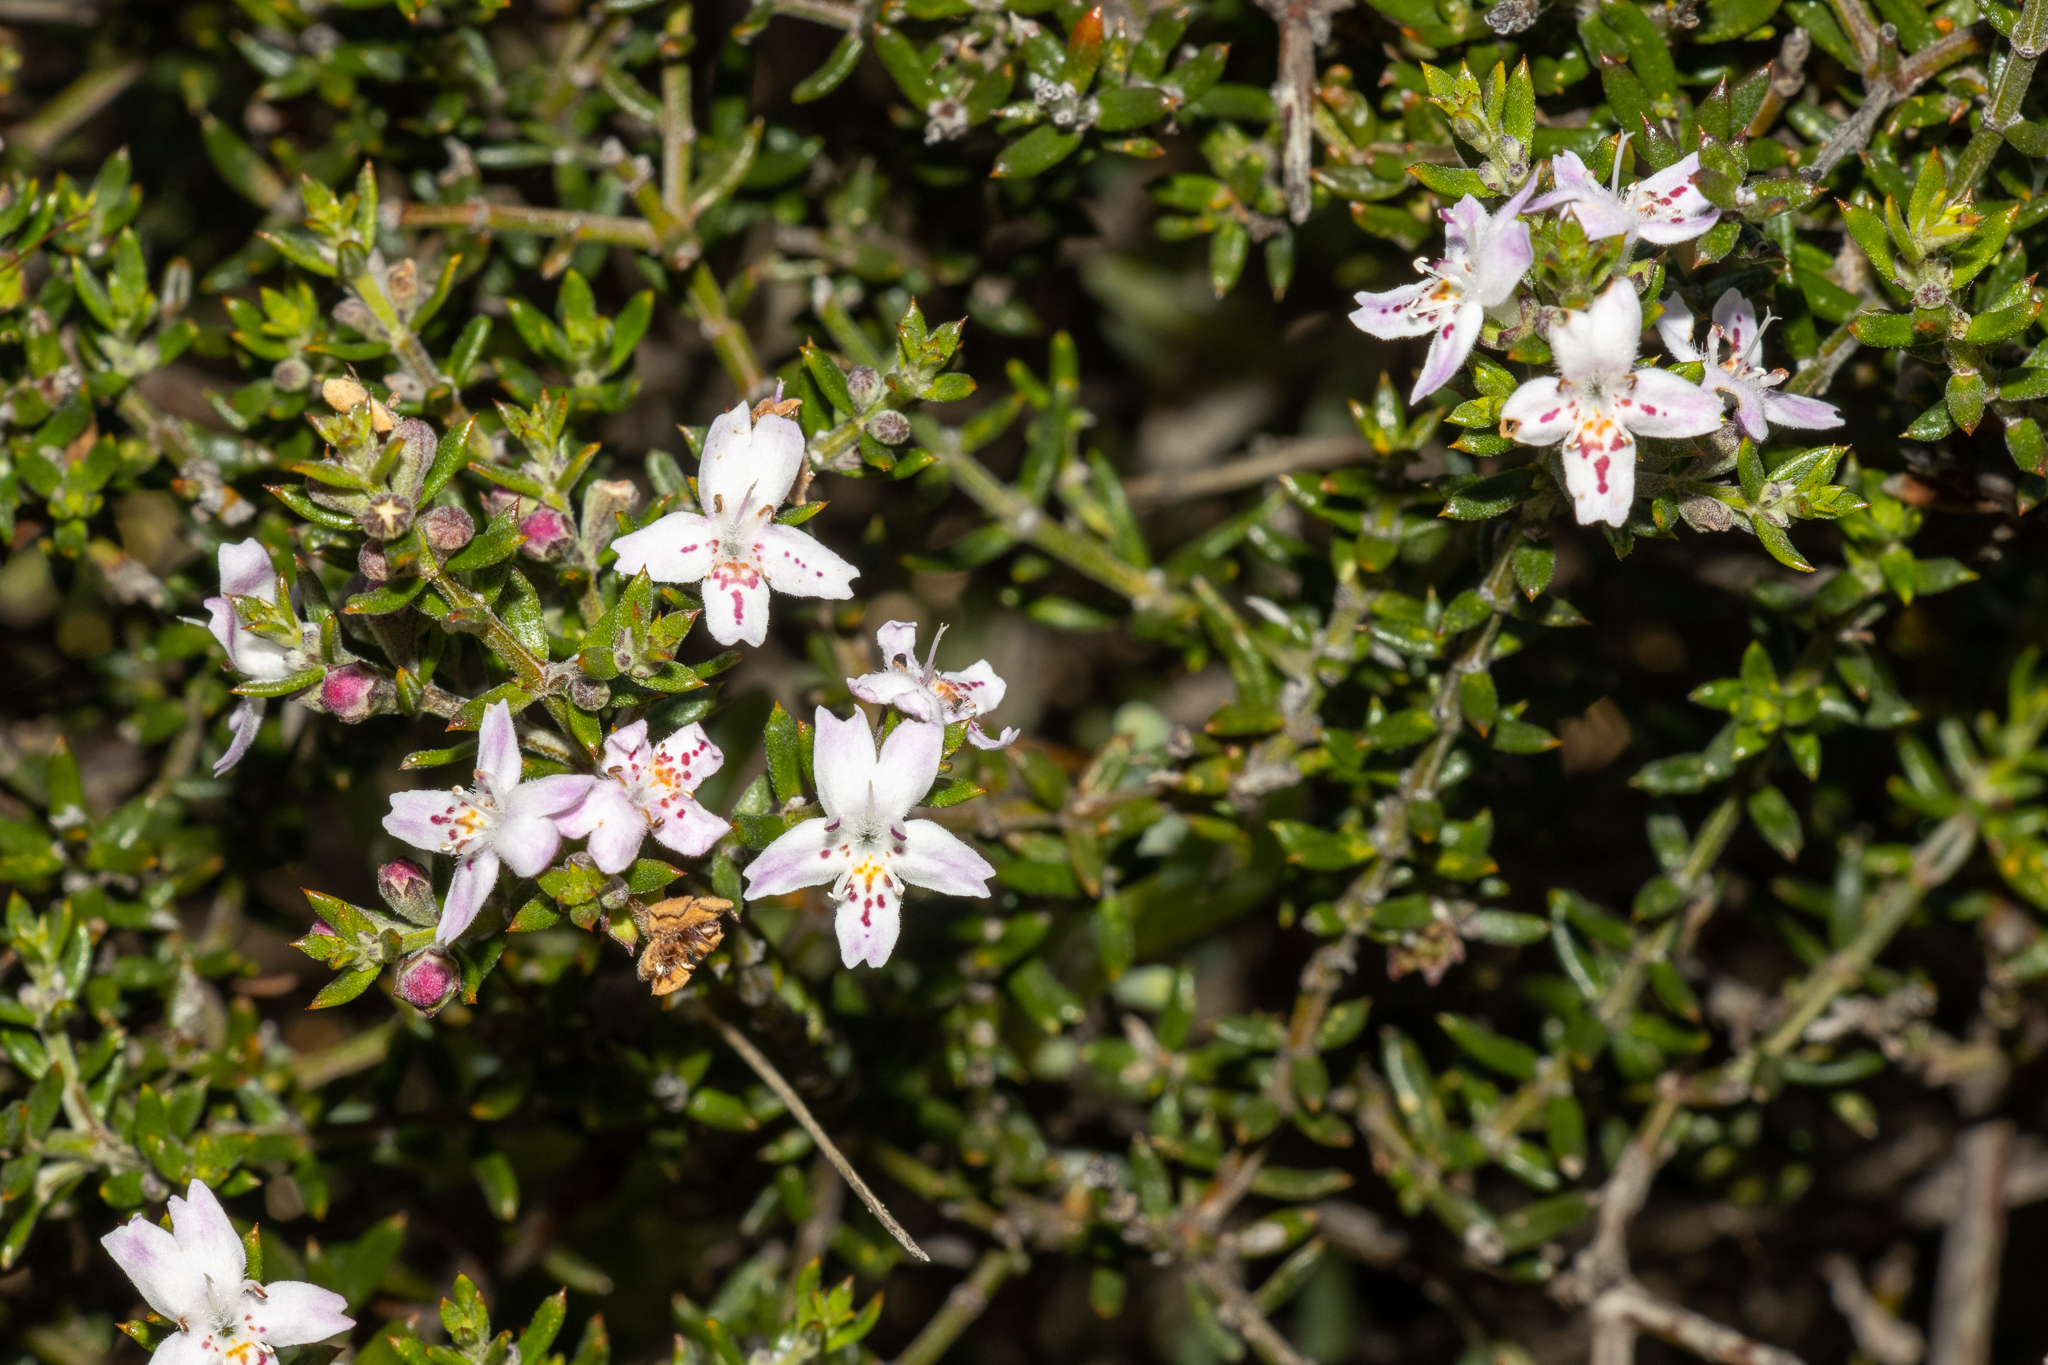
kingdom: Plantae
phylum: Tracheophyta
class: Magnoliopsida
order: Lamiales
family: Lamiaceae
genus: Westringia
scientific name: Westringia rigida
